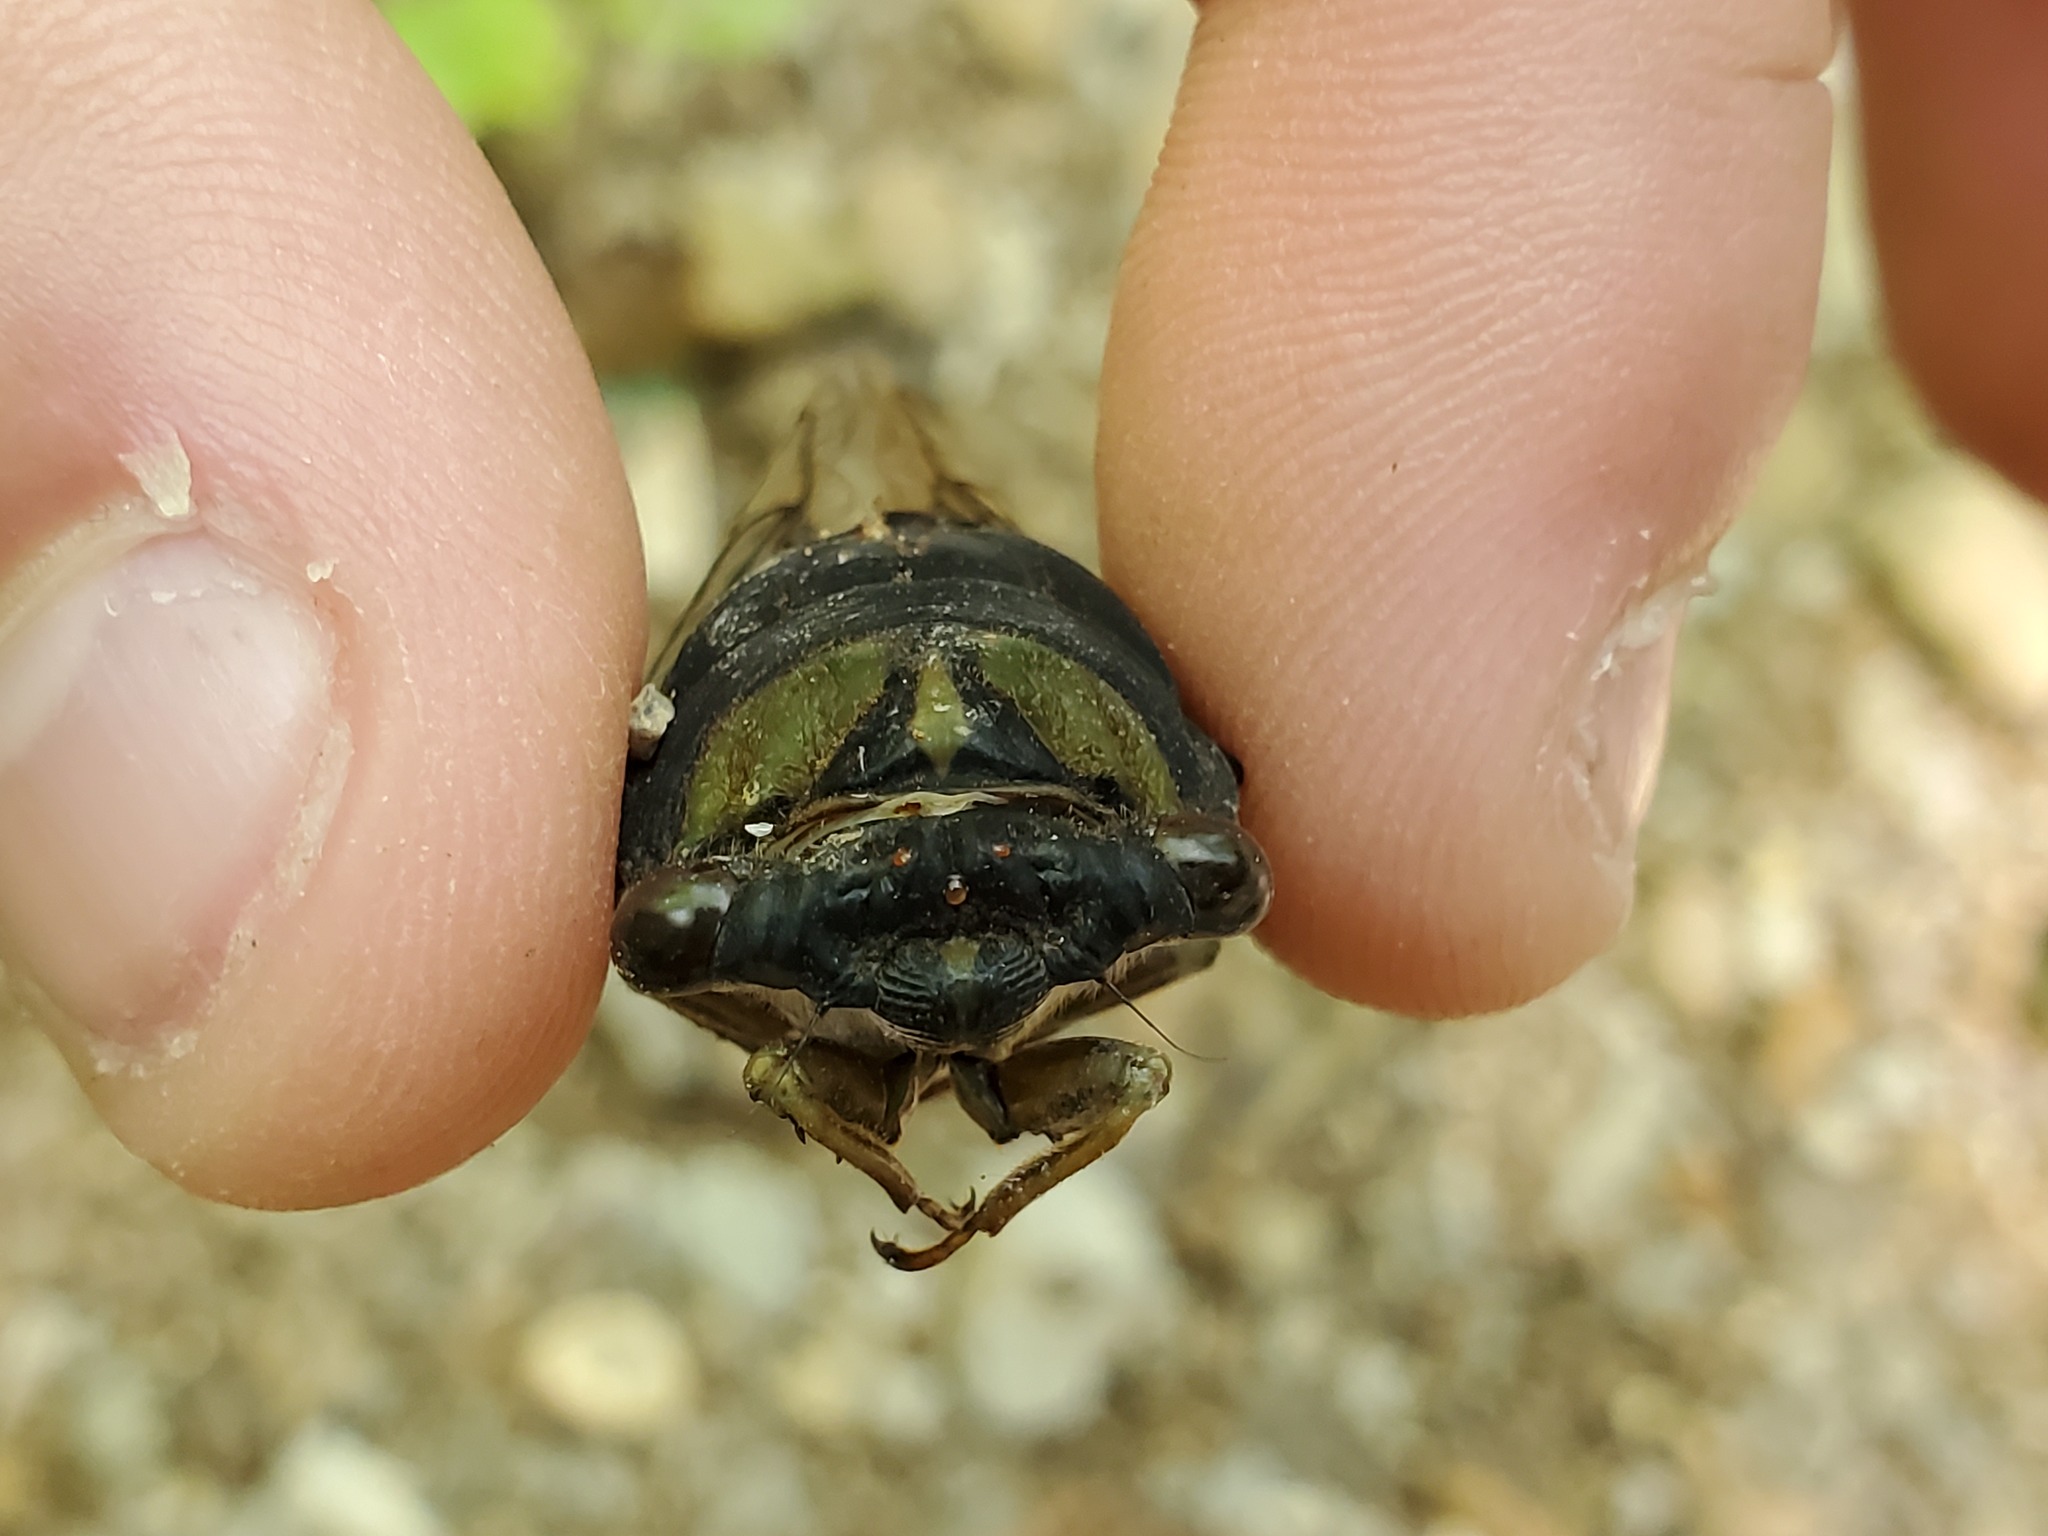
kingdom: Animalia
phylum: Arthropoda
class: Insecta
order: Hemiptera
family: Cicadidae
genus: Neotibicen
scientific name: Neotibicen tibicen
